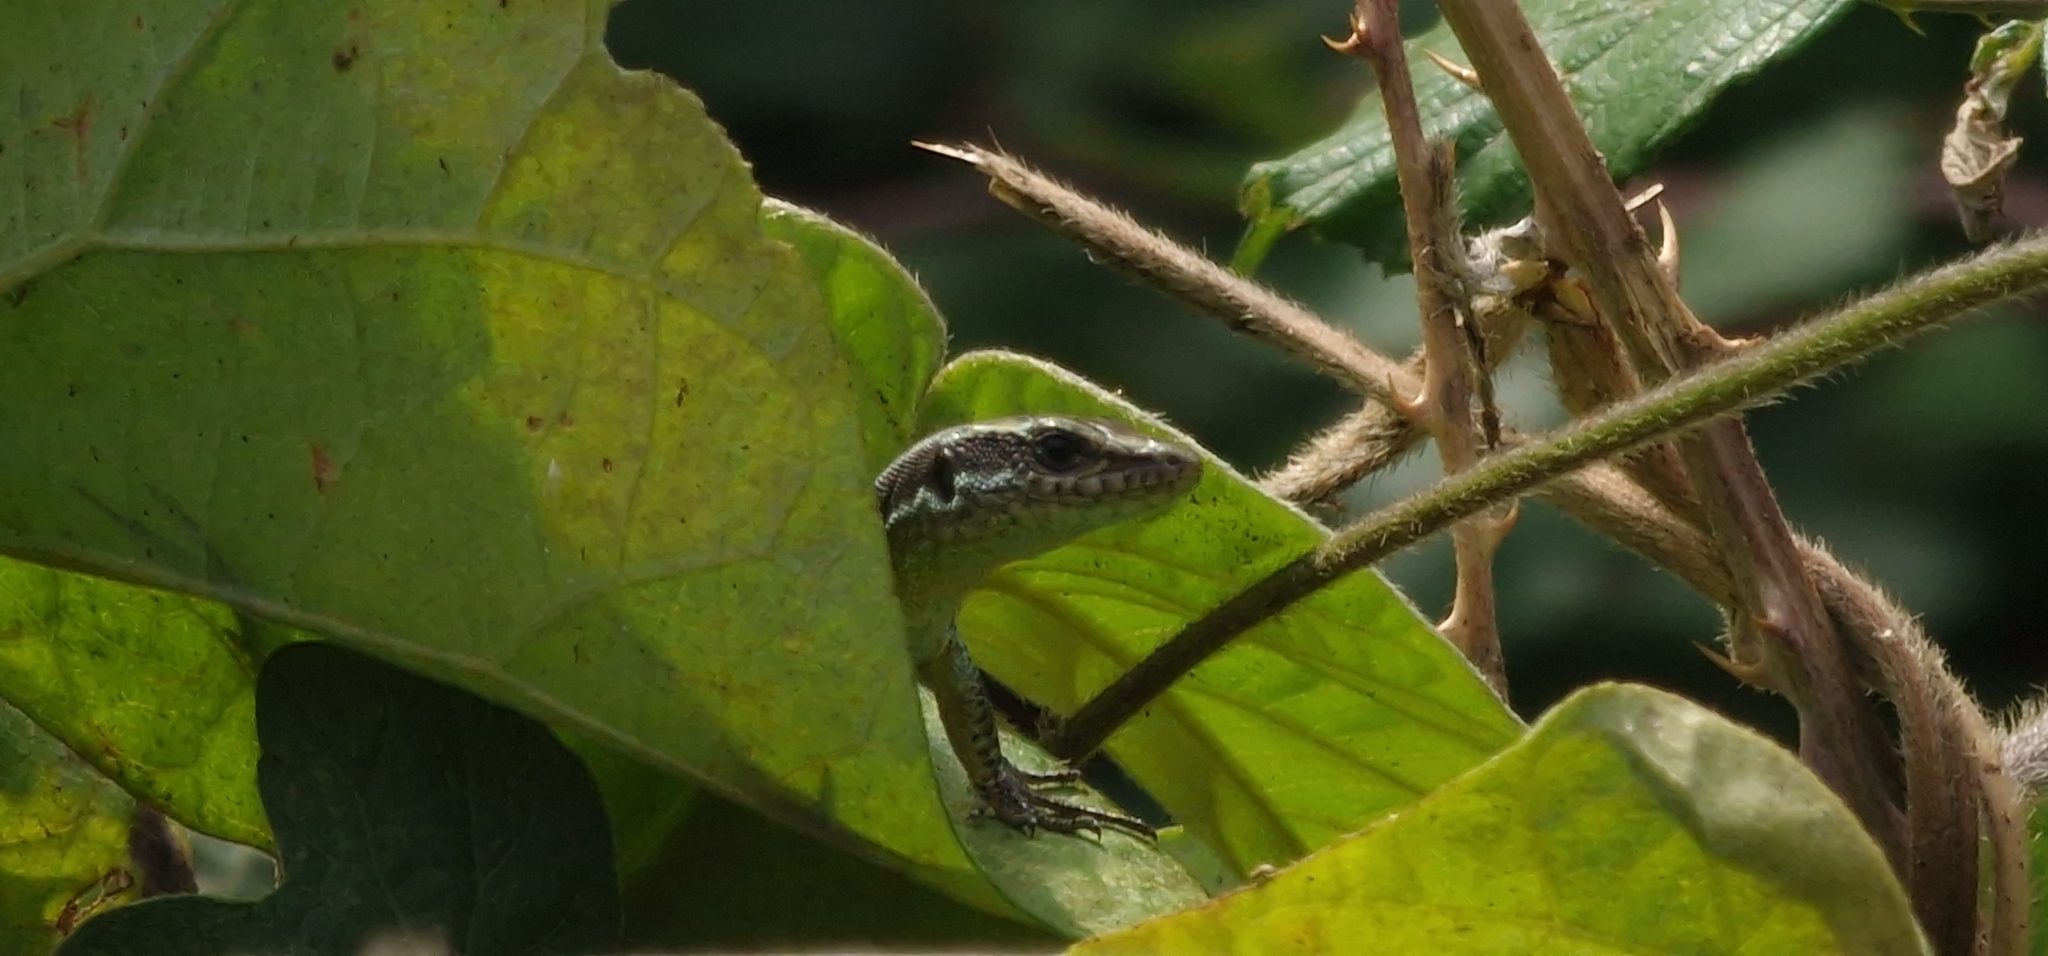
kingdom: Animalia
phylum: Chordata
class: Squamata
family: Lacertidae
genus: Teira
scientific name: Teira dugesii
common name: Madeira lizard
